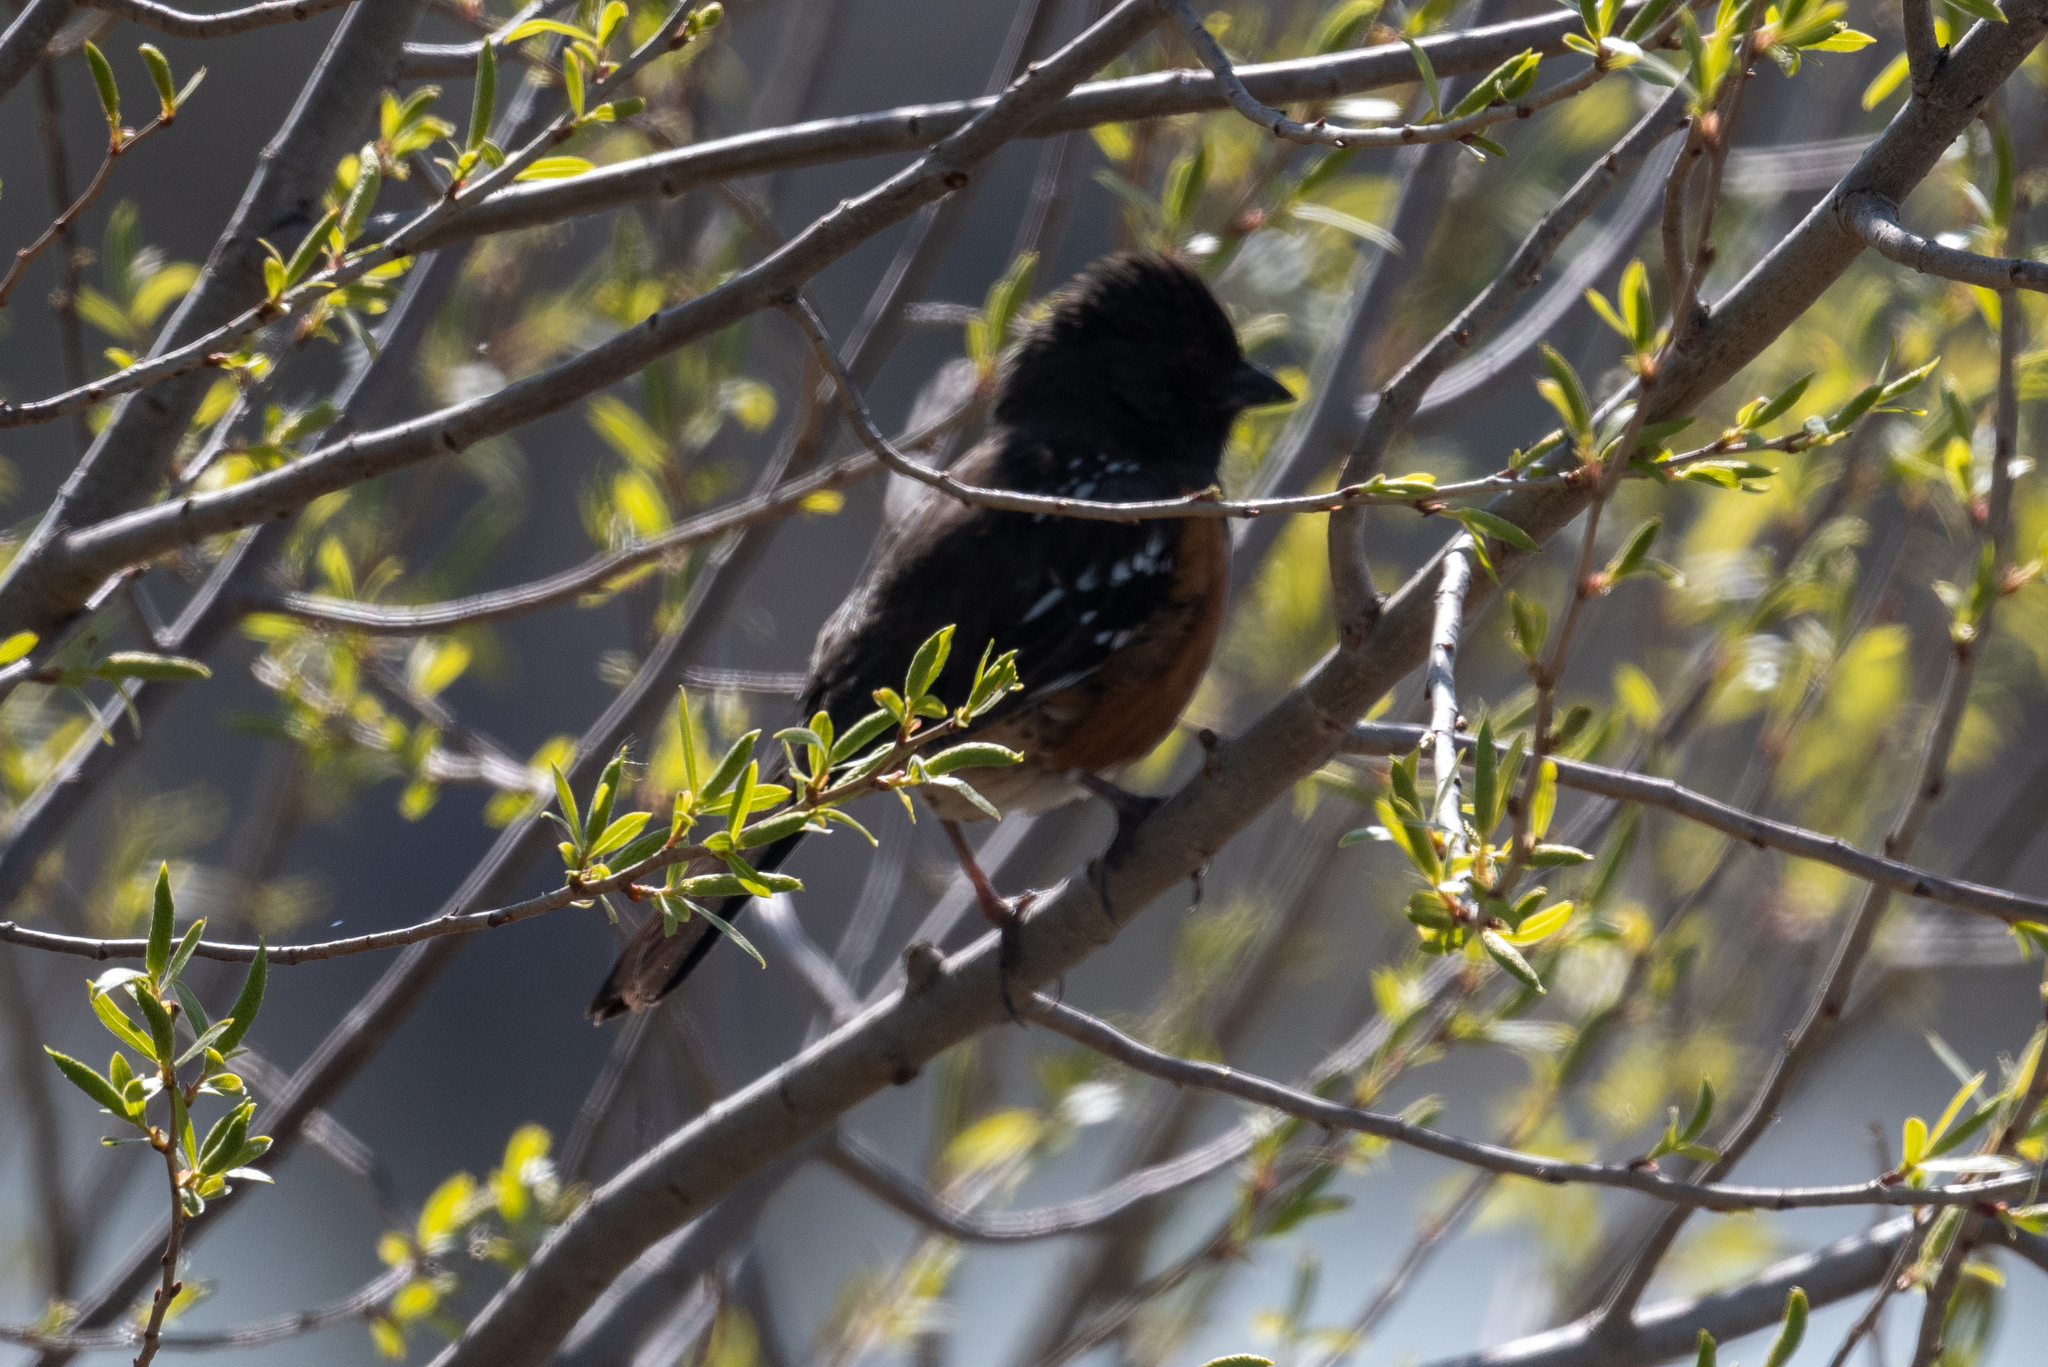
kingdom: Animalia
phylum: Chordata
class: Aves
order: Passeriformes
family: Passerellidae
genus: Pipilo
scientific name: Pipilo maculatus
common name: Spotted towhee
